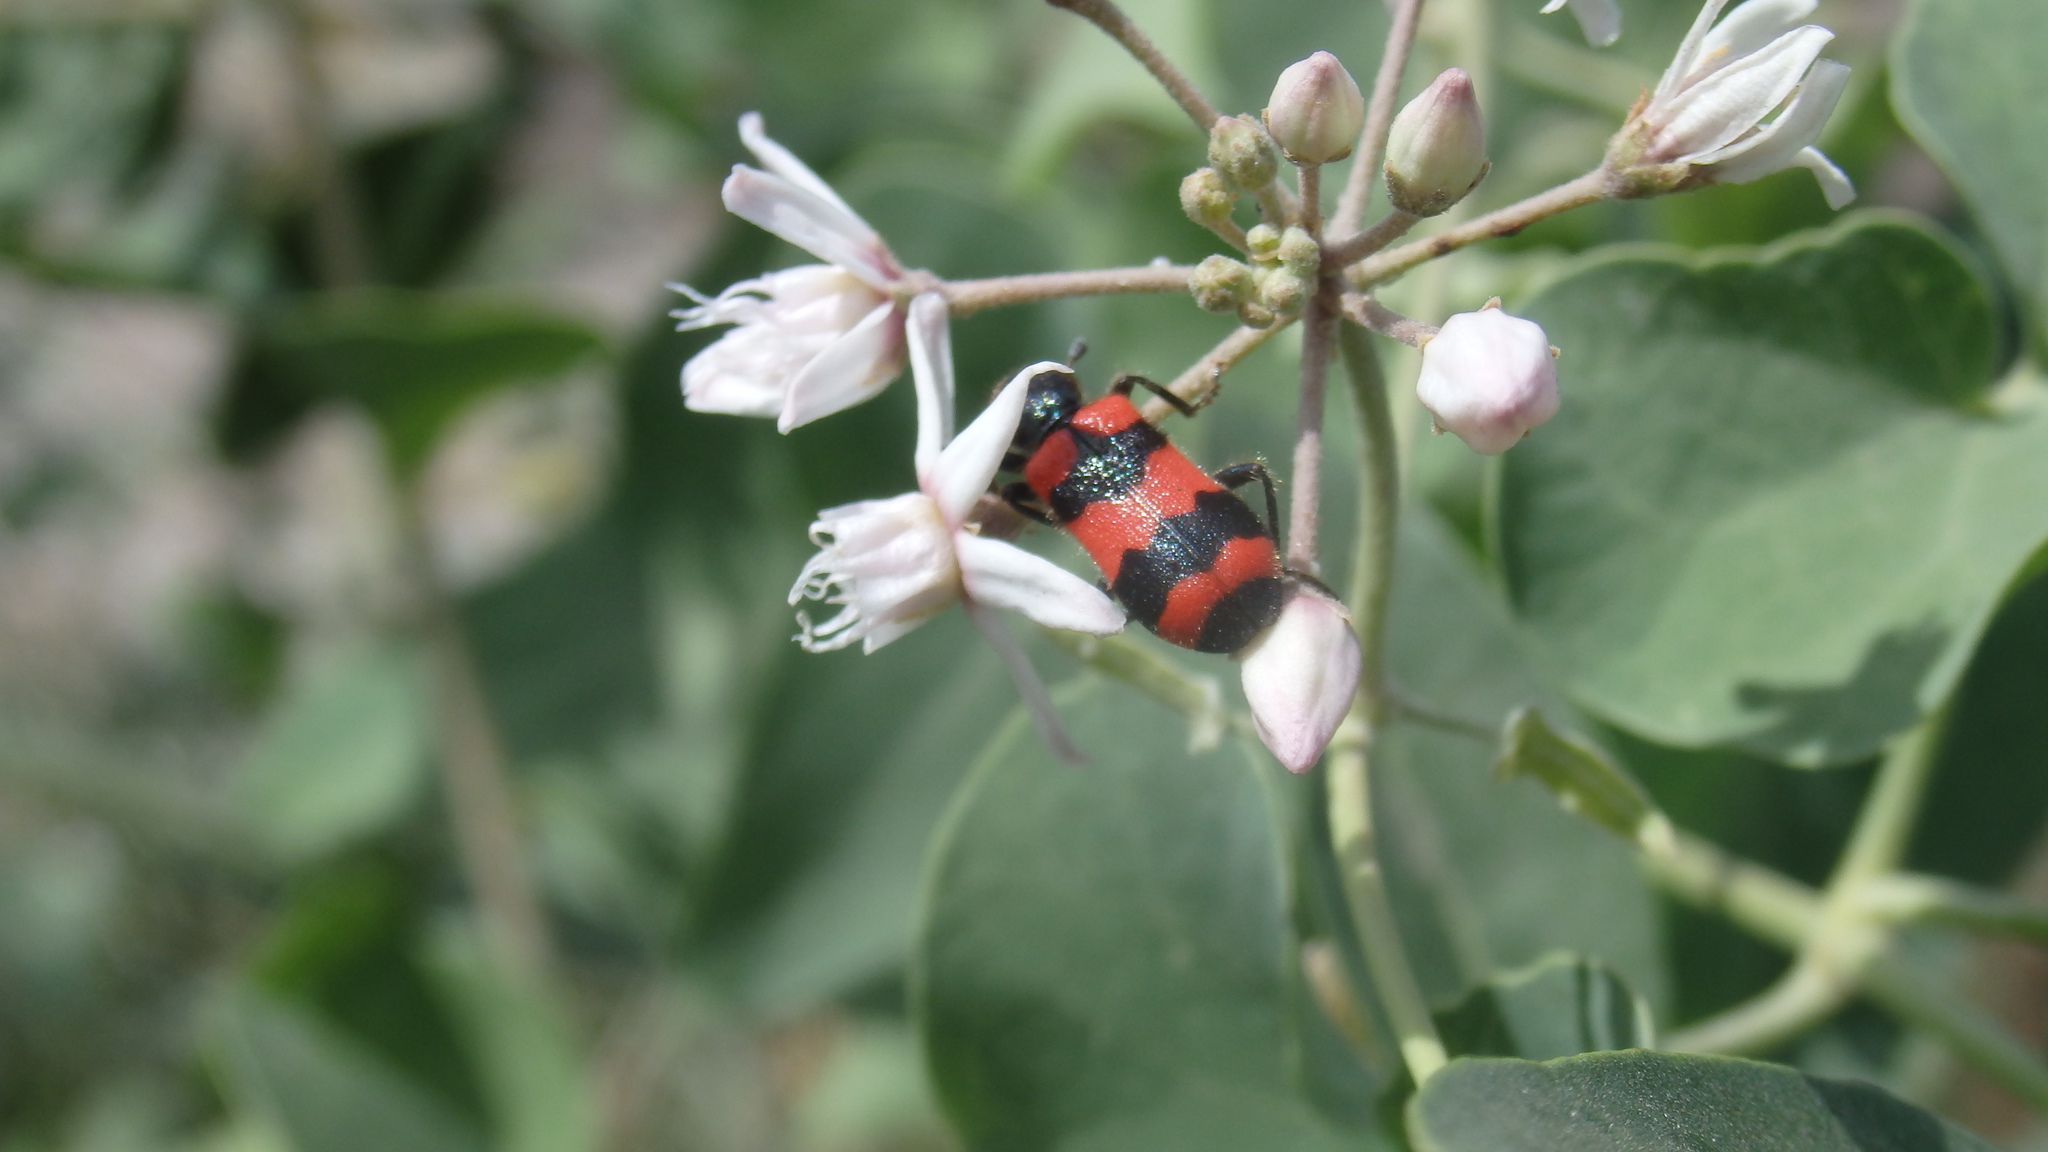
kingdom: Animalia
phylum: Arthropoda
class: Insecta
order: Coleoptera
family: Cleridae
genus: Trichodes
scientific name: Trichodes apiarius
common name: Bee-eating beetle
